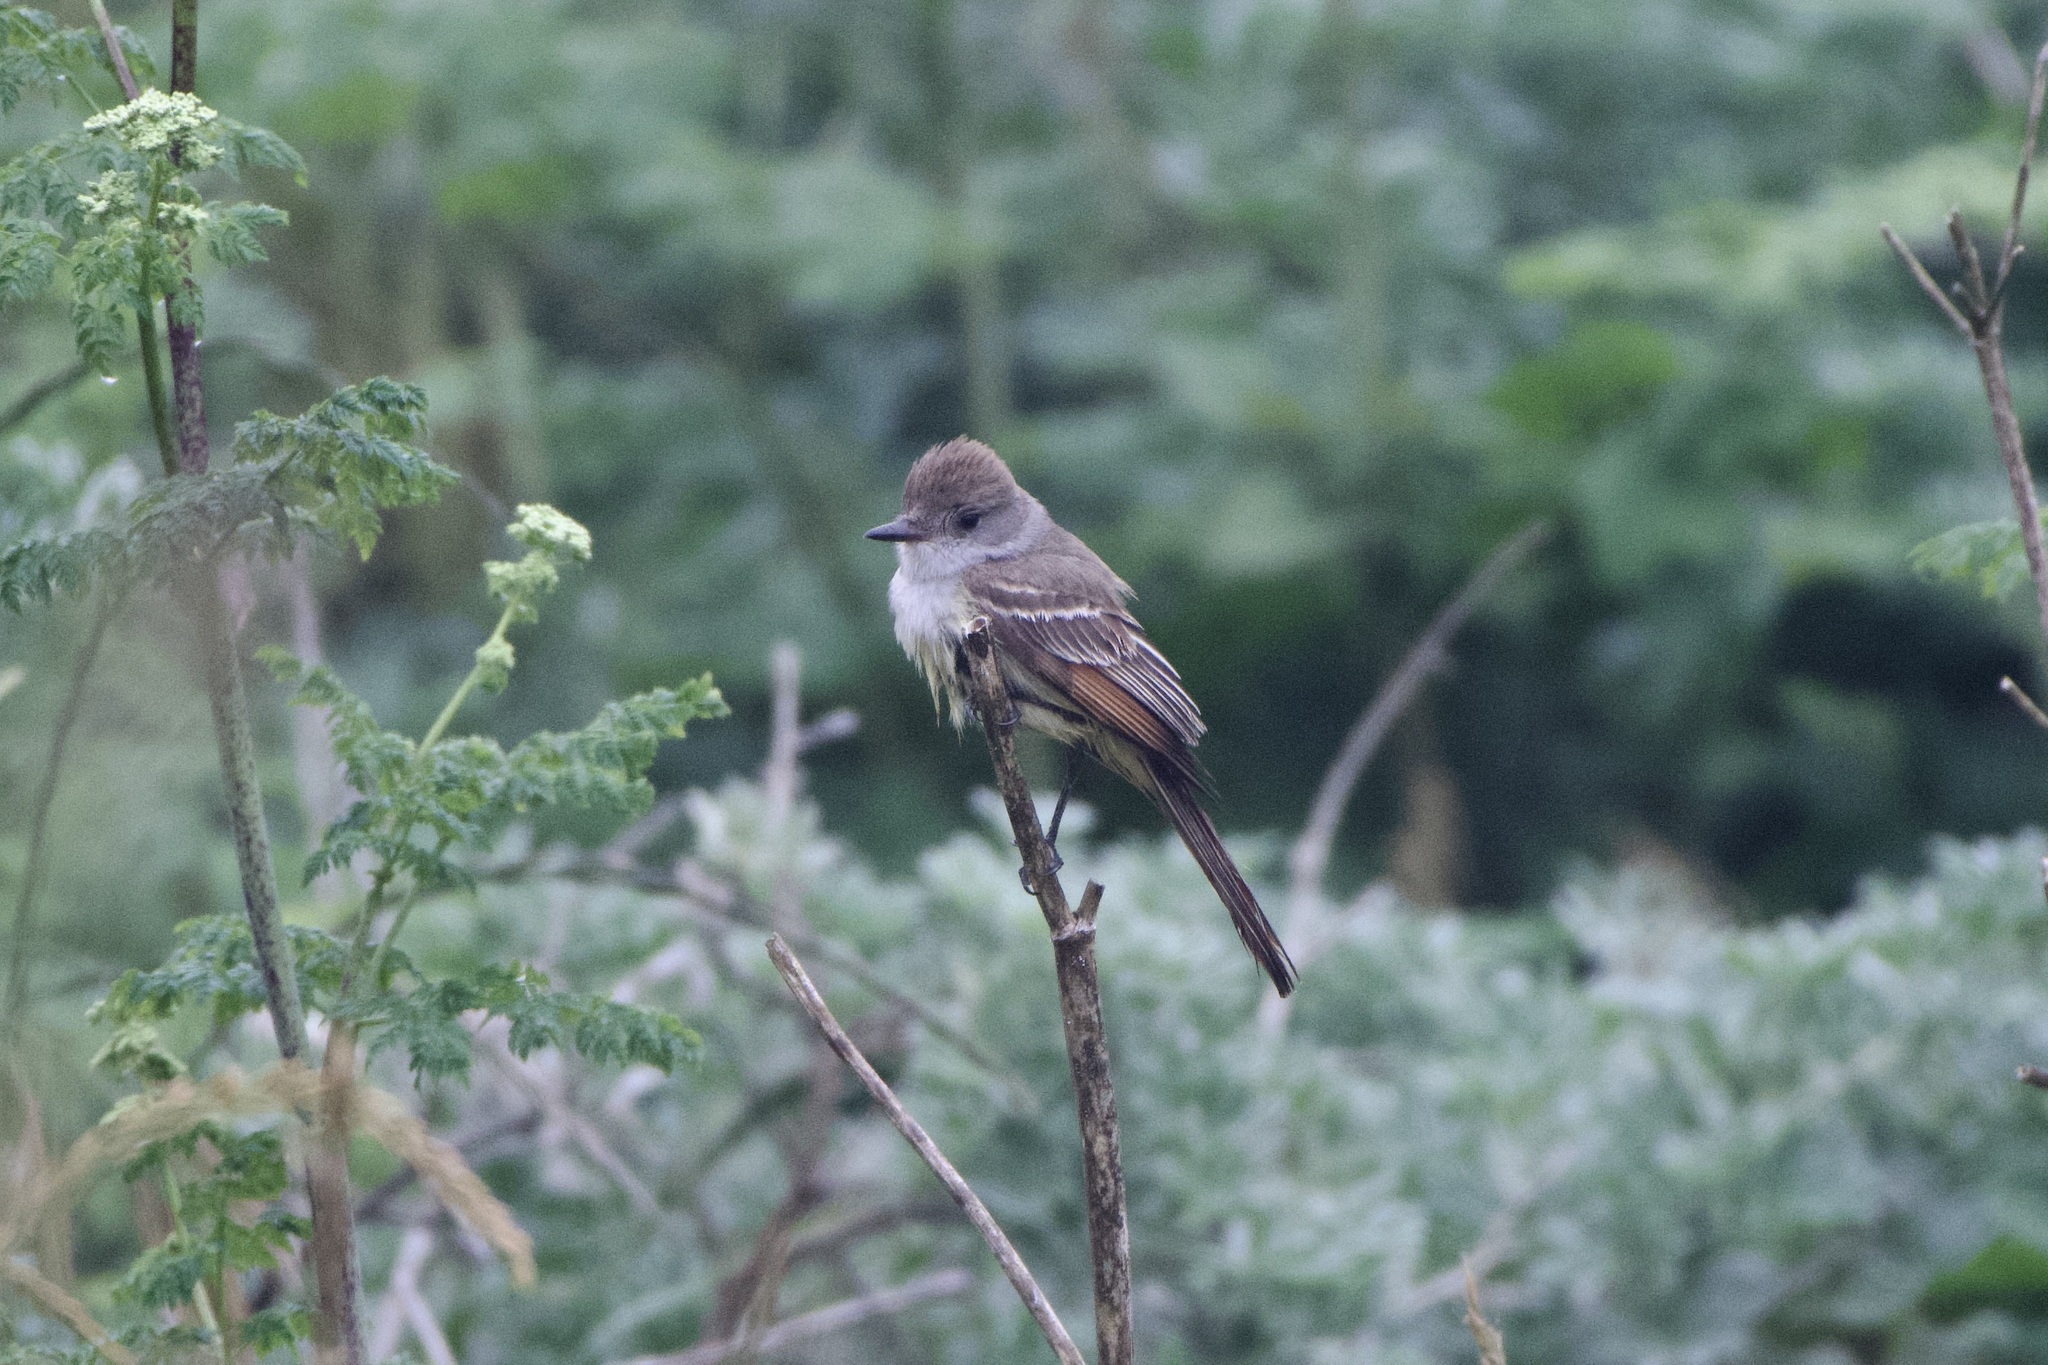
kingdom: Animalia
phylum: Chordata
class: Aves
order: Passeriformes
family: Tyrannidae
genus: Myiarchus
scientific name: Myiarchus cinerascens
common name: Ash-throated flycatcher
